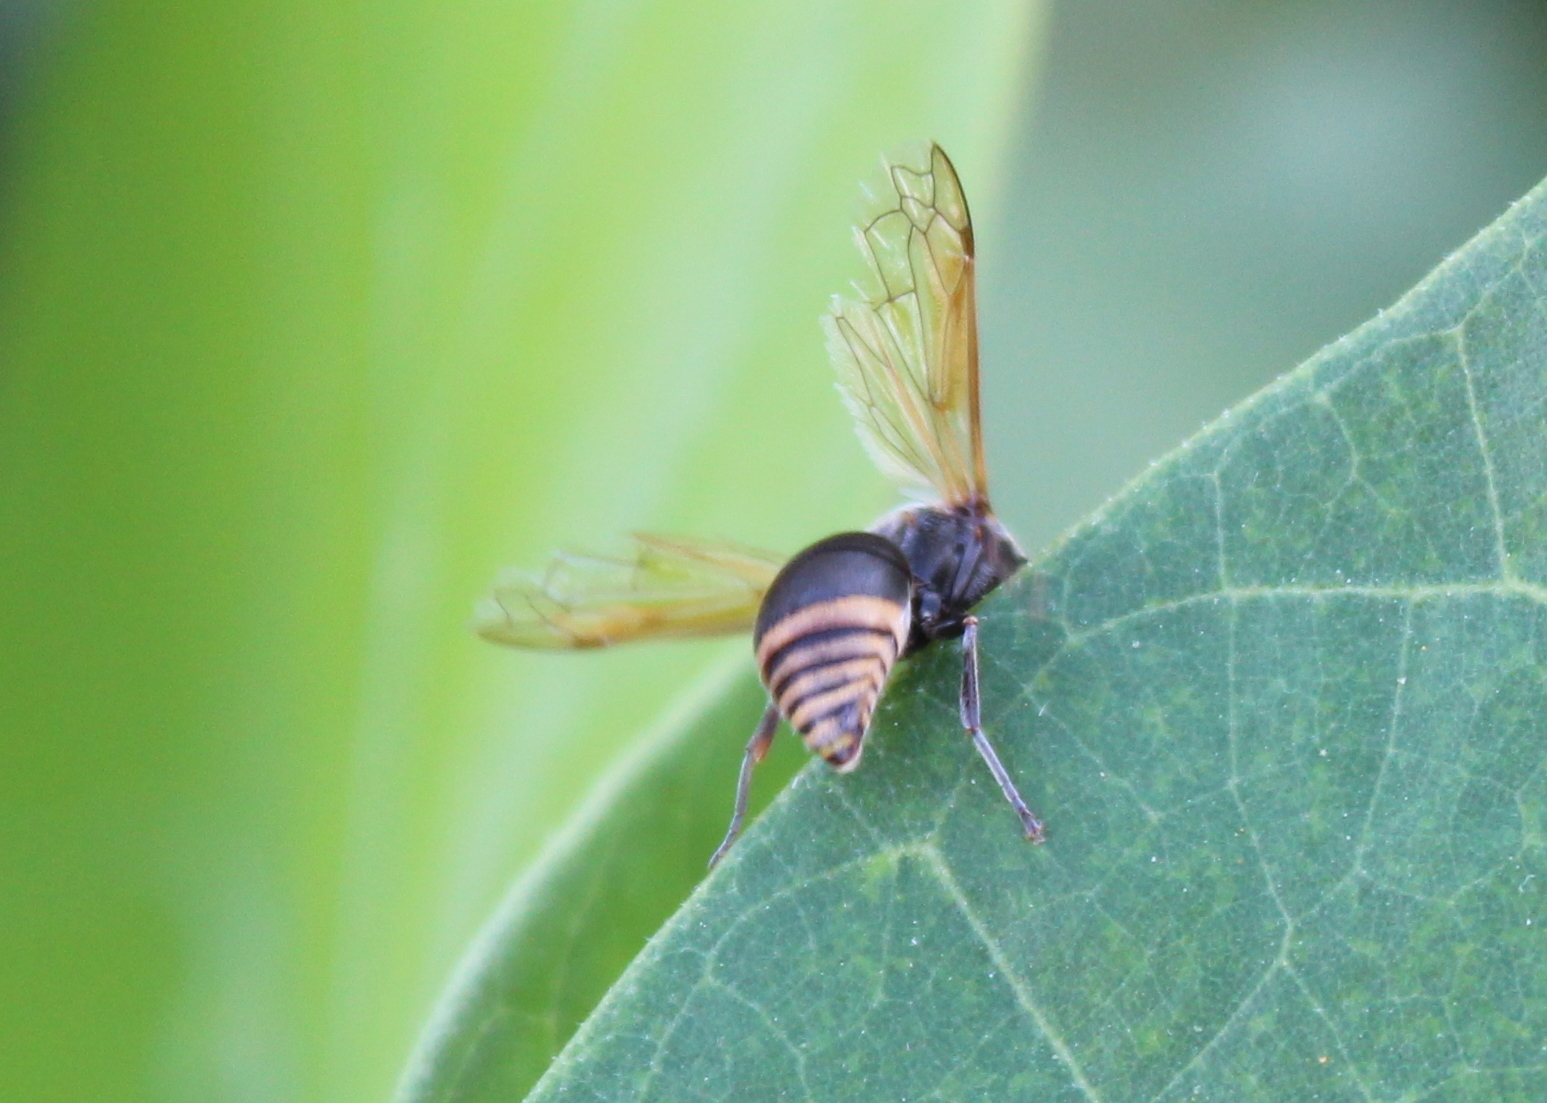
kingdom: Animalia
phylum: Arthropoda
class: Insecta
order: Hymenoptera
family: Eumenidae
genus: Pachodynerus
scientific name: Pachodynerus nasidens
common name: Key hole wasp
